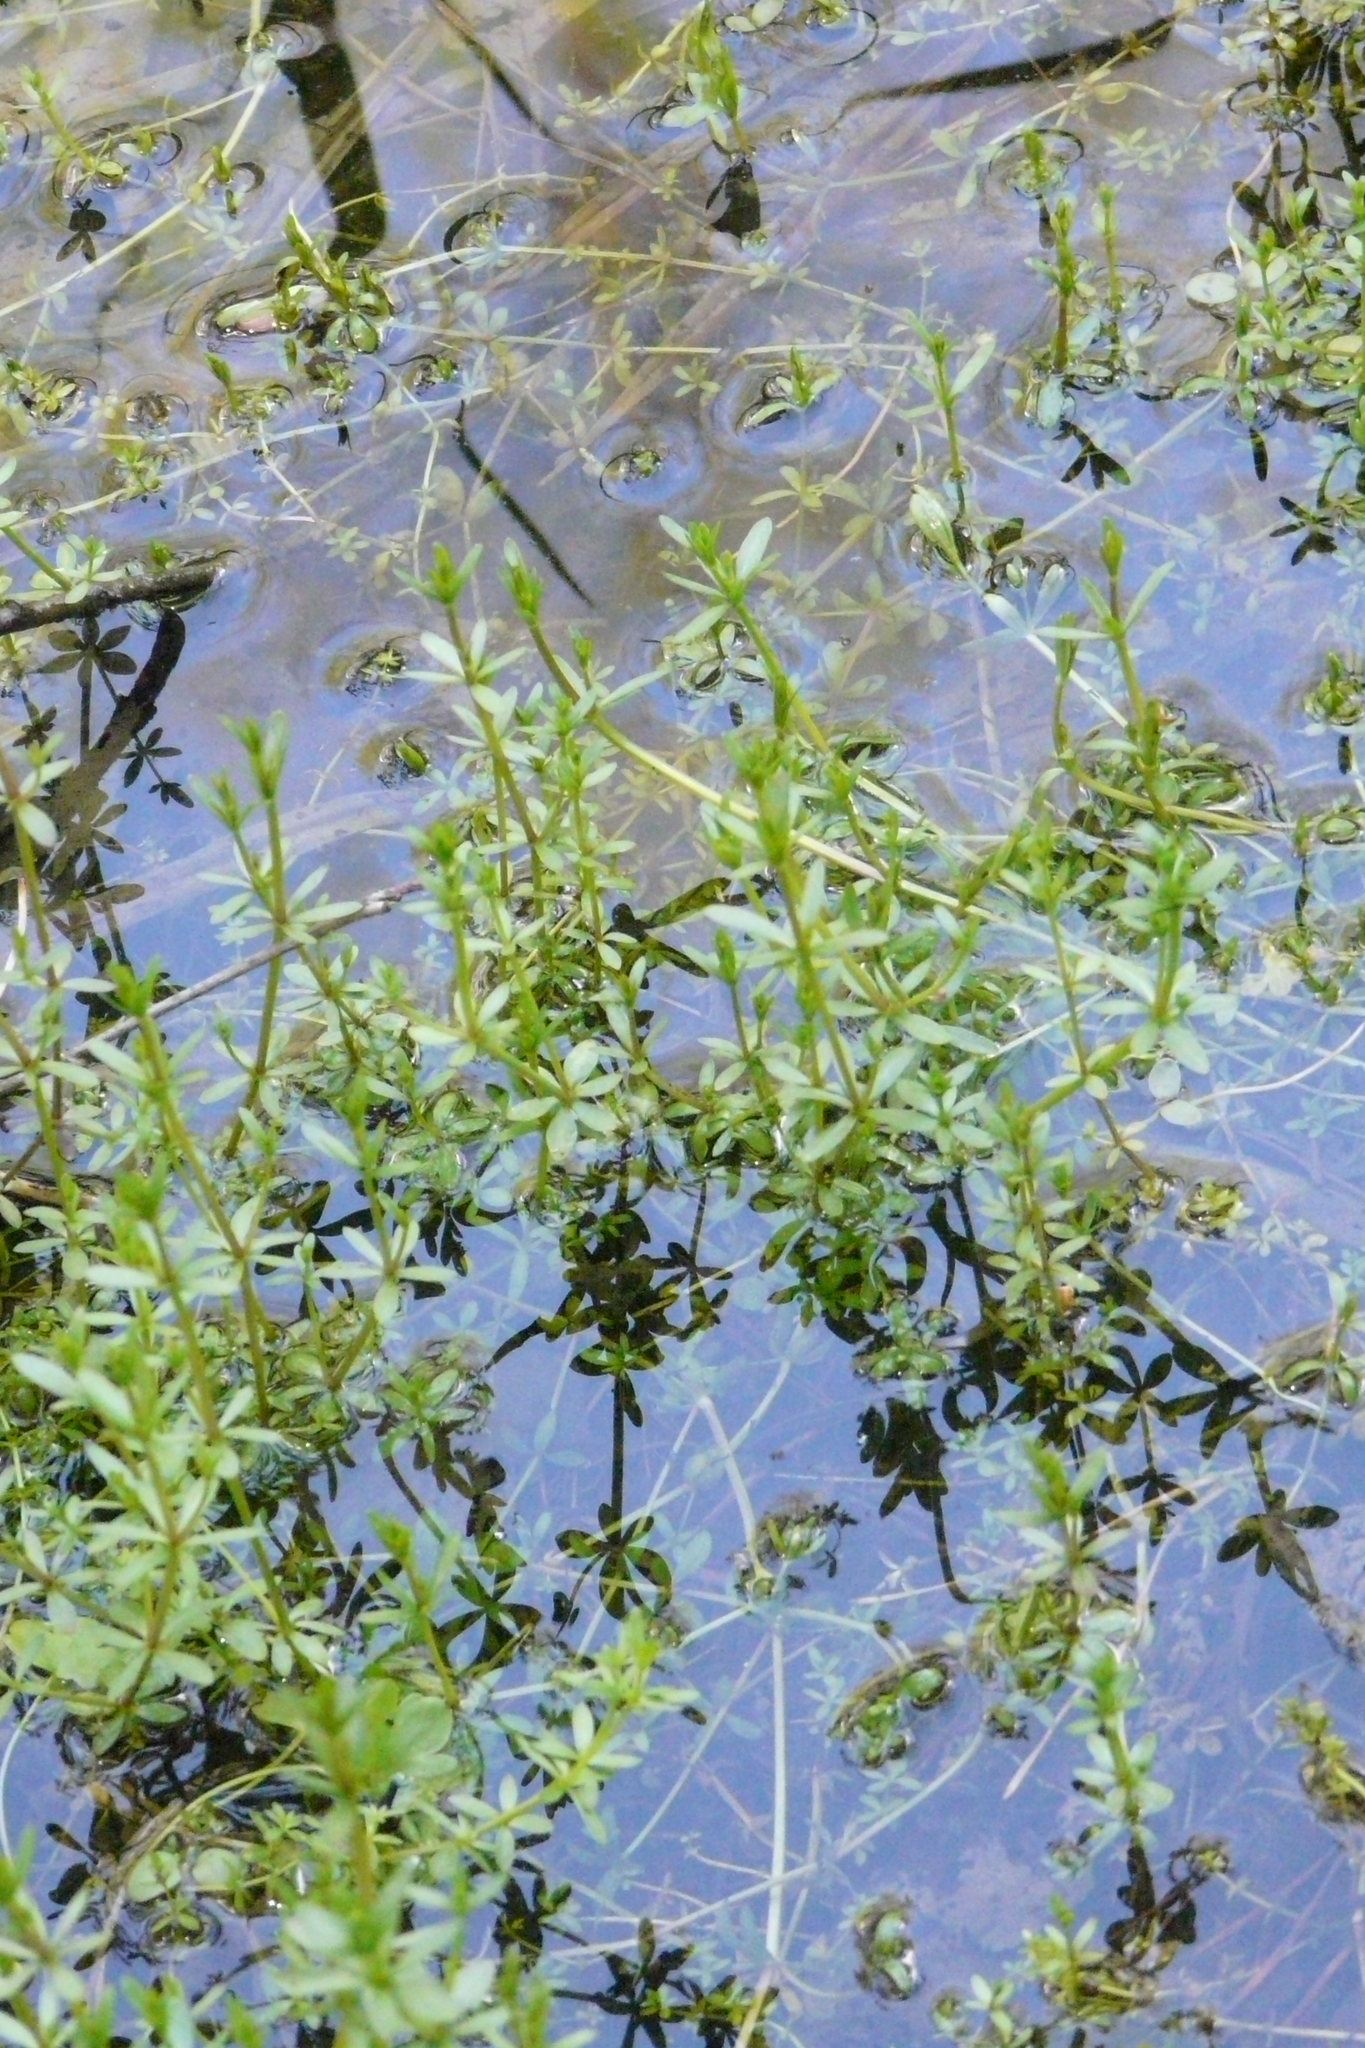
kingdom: Plantae
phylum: Tracheophyta
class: Magnoliopsida
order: Gentianales
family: Rubiaceae
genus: Galium
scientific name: Galium palustre
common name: Common marsh-bedstraw
